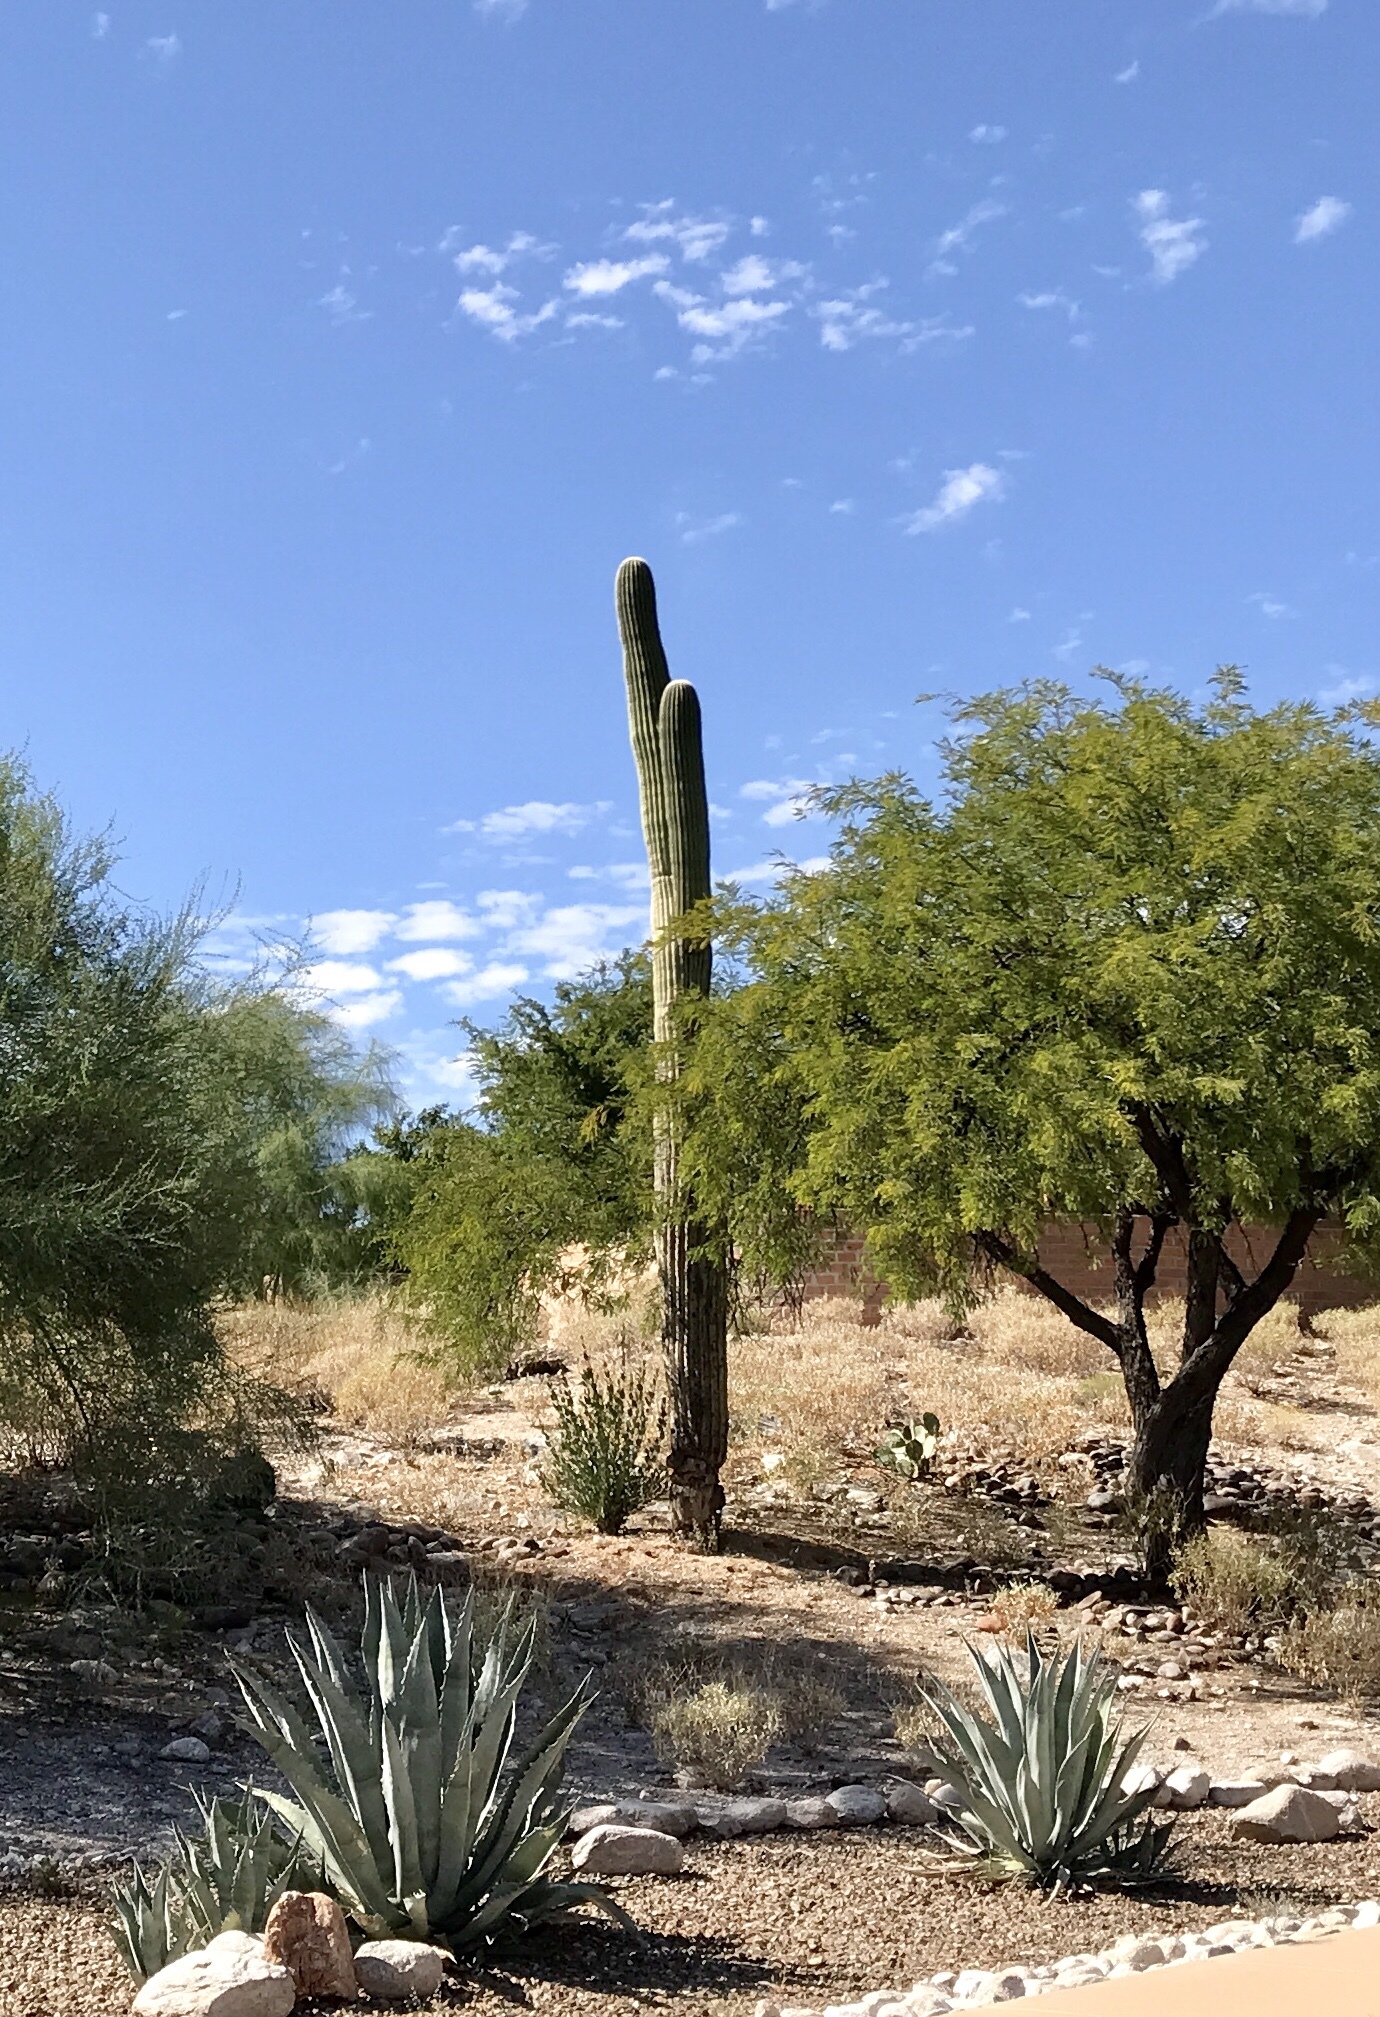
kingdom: Plantae
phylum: Tracheophyta
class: Magnoliopsida
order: Caryophyllales
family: Cactaceae
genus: Carnegiea
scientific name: Carnegiea gigantea
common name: Saguaro
